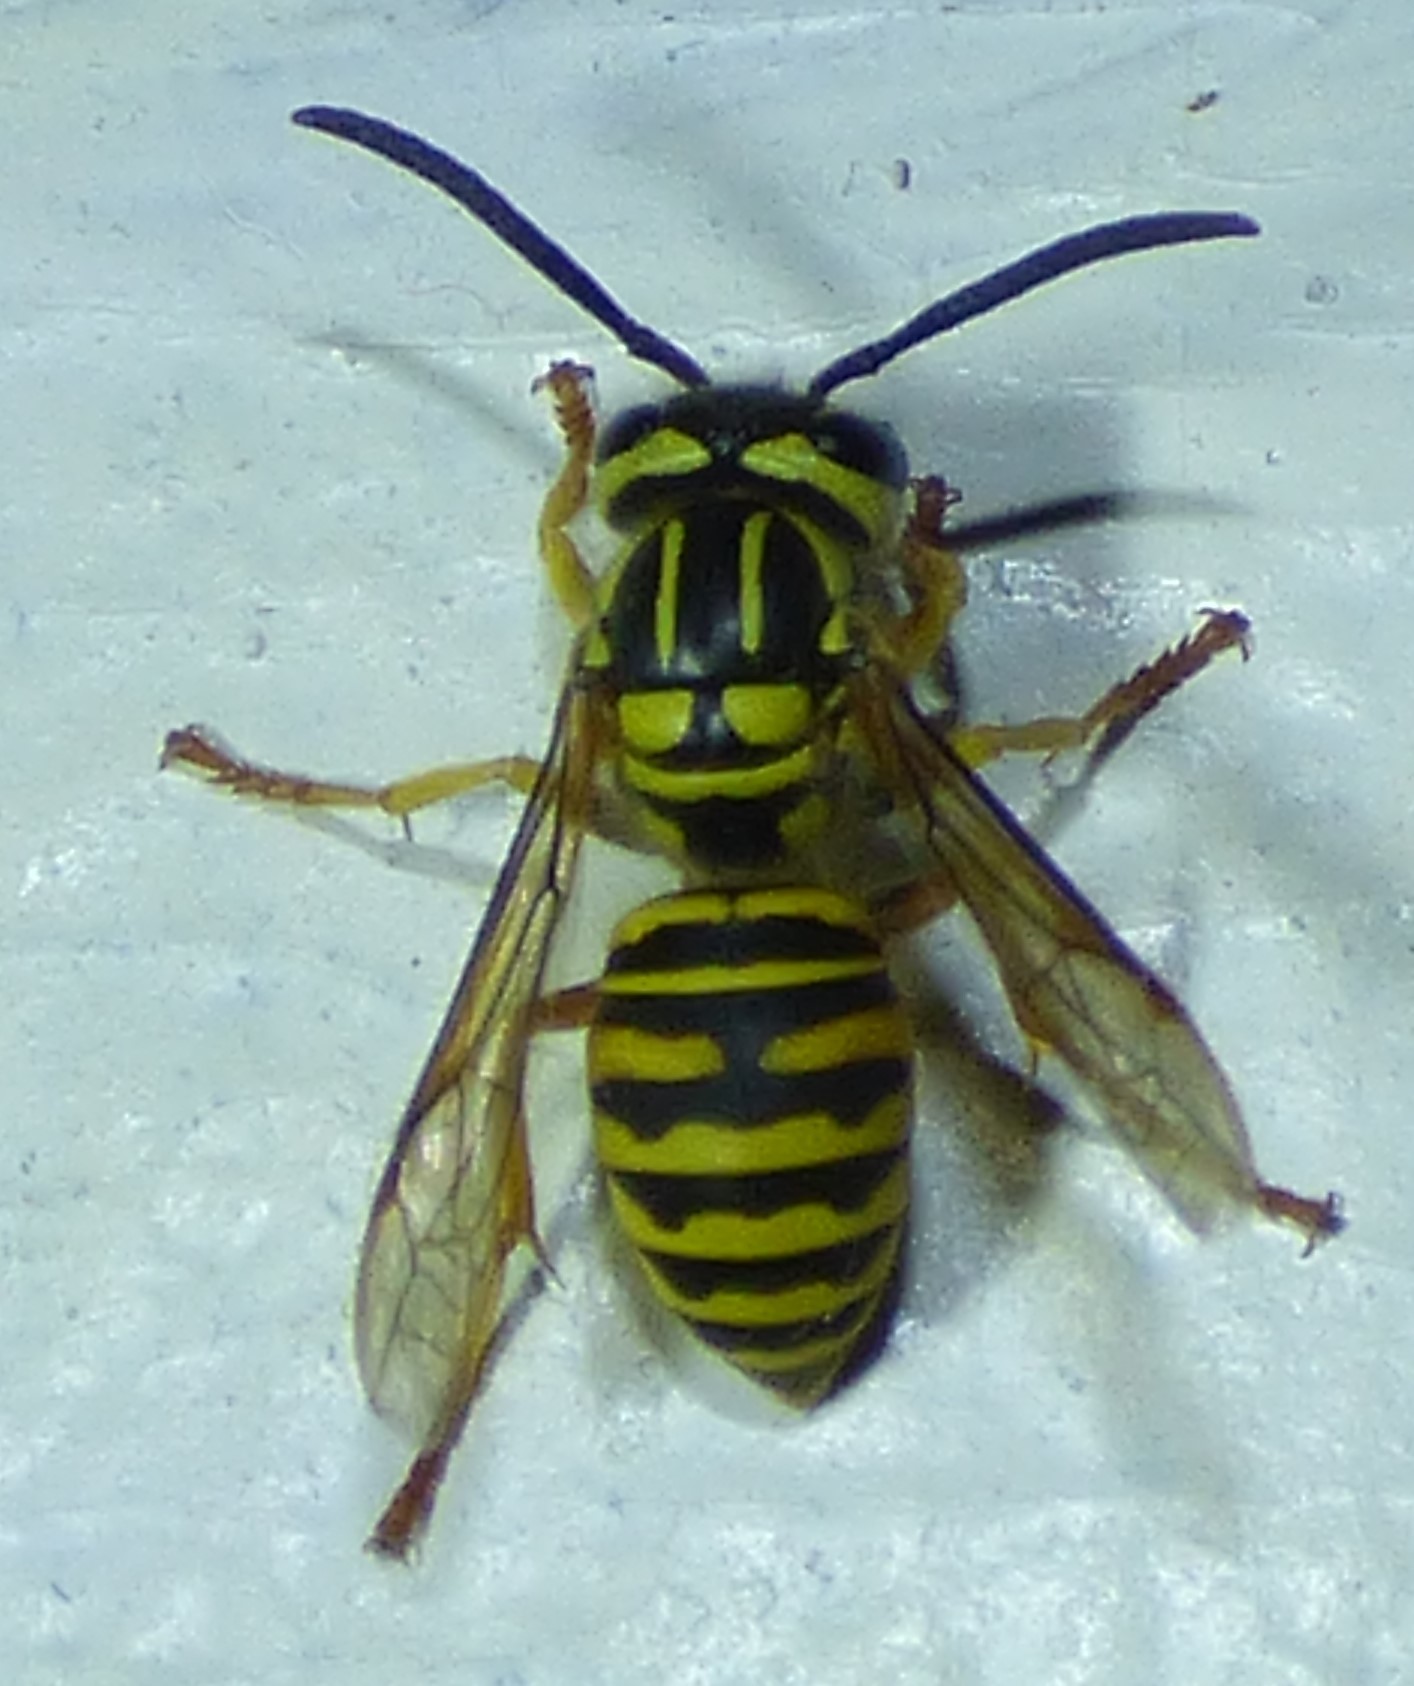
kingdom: Animalia
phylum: Arthropoda
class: Insecta
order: Hymenoptera
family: Vespidae
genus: Vespula
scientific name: Vespula squamosa
